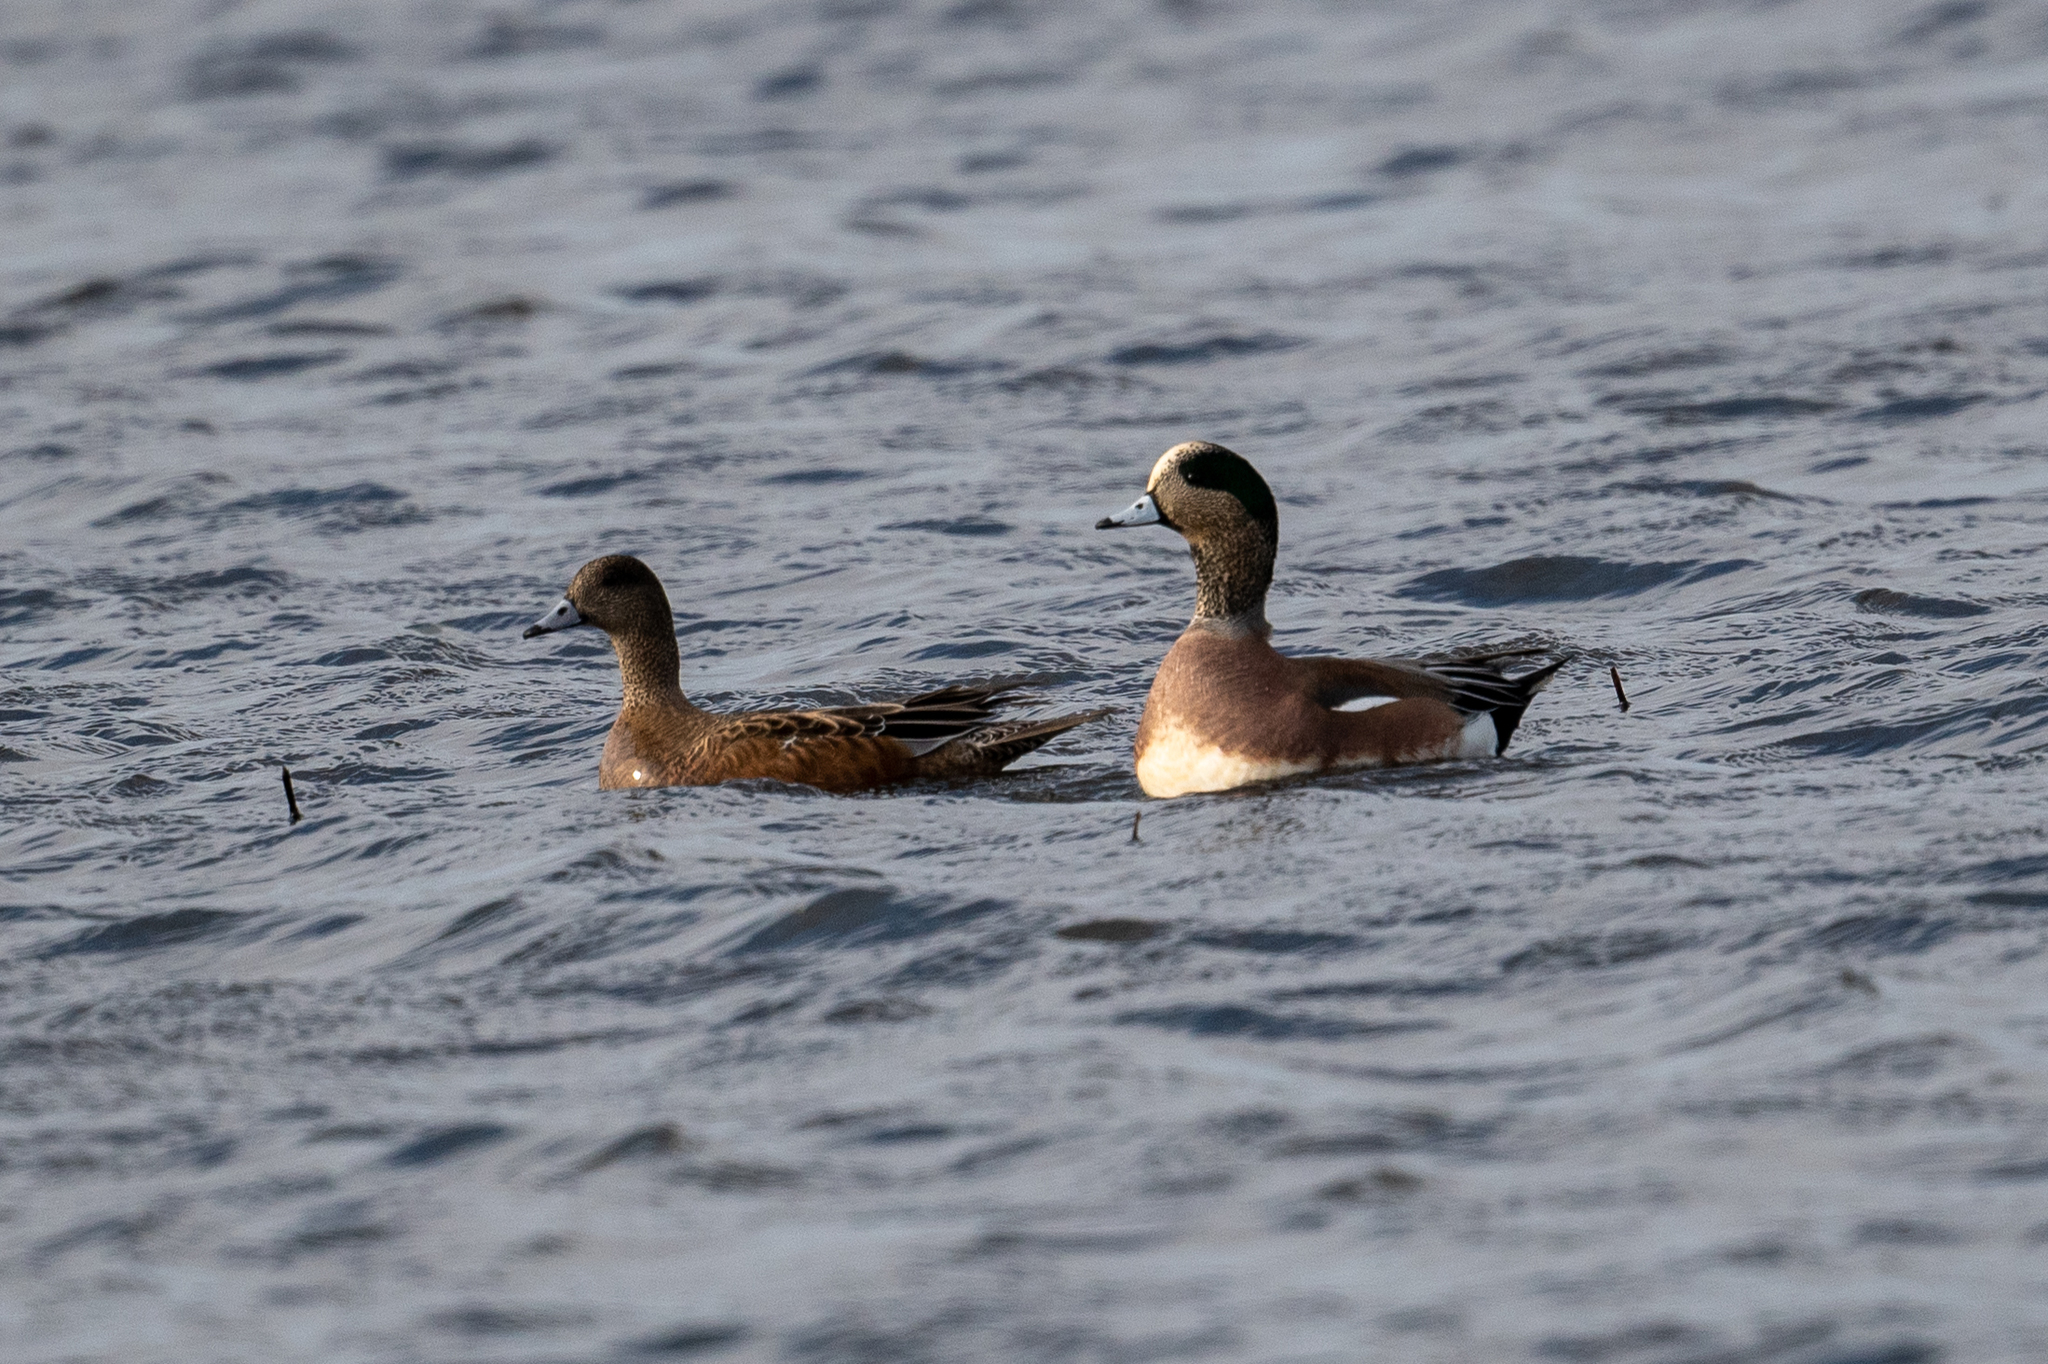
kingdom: Animalia
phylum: Chordata
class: Aves
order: Anseriformes
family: Anatidae
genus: Mareca
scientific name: Mareca americana
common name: American wigeon
